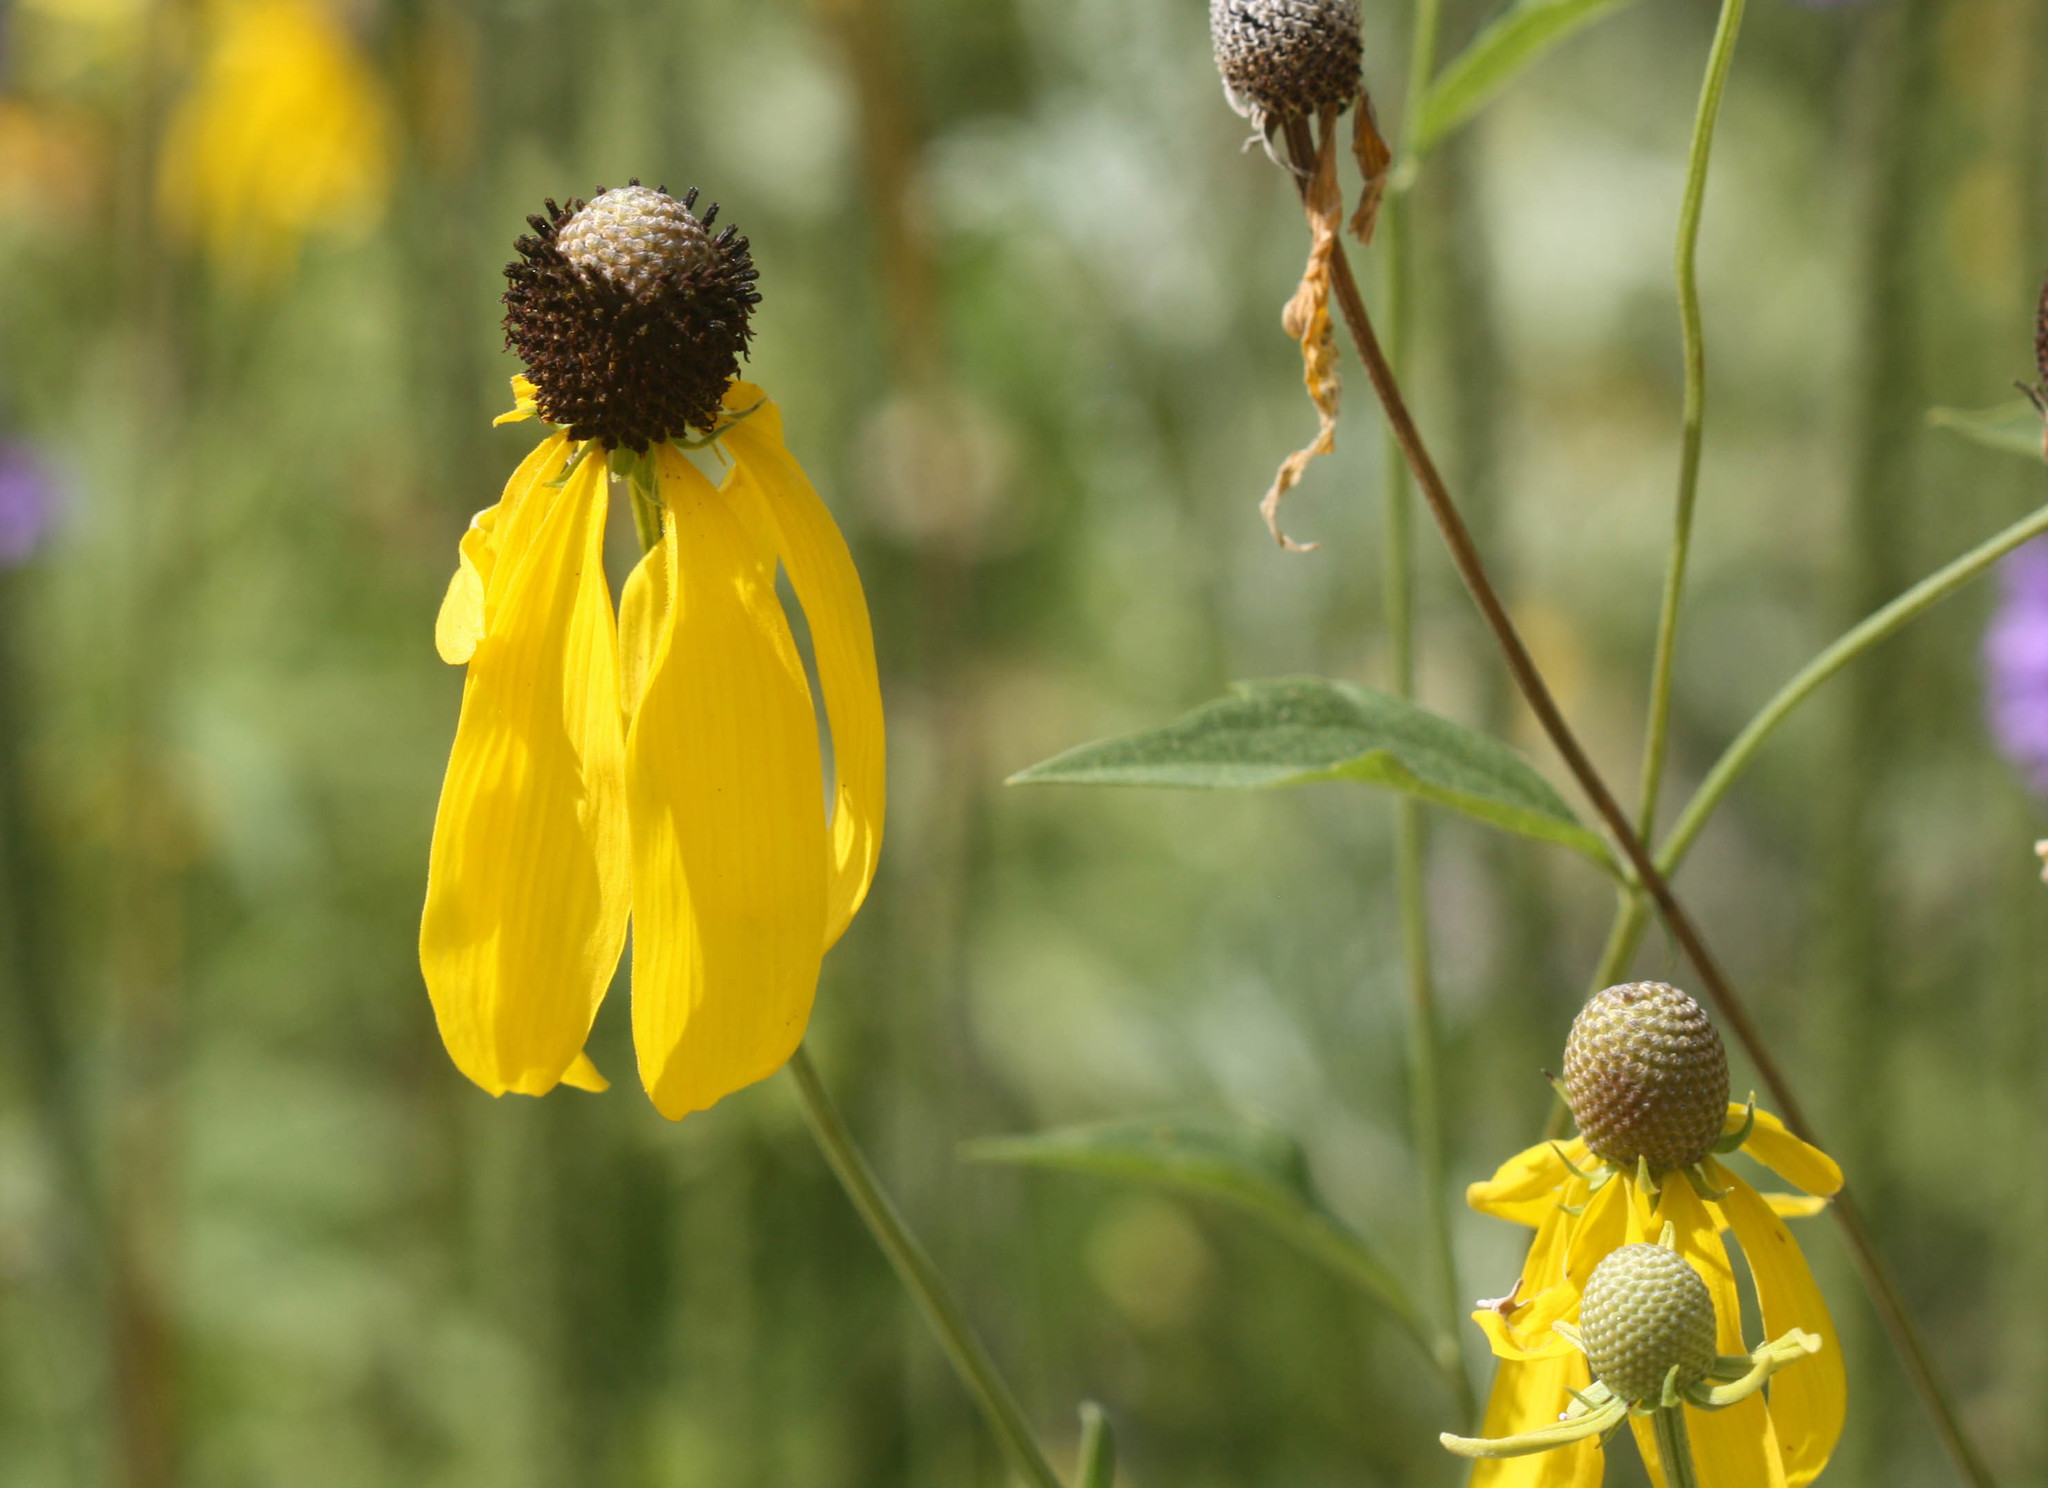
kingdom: Plantae
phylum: Tracheophyta
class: Magnoliopsida
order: Asterales
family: Asteraceae
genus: Ratibida
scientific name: Ratibida pinnata
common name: Drooping prairie-coneflower
